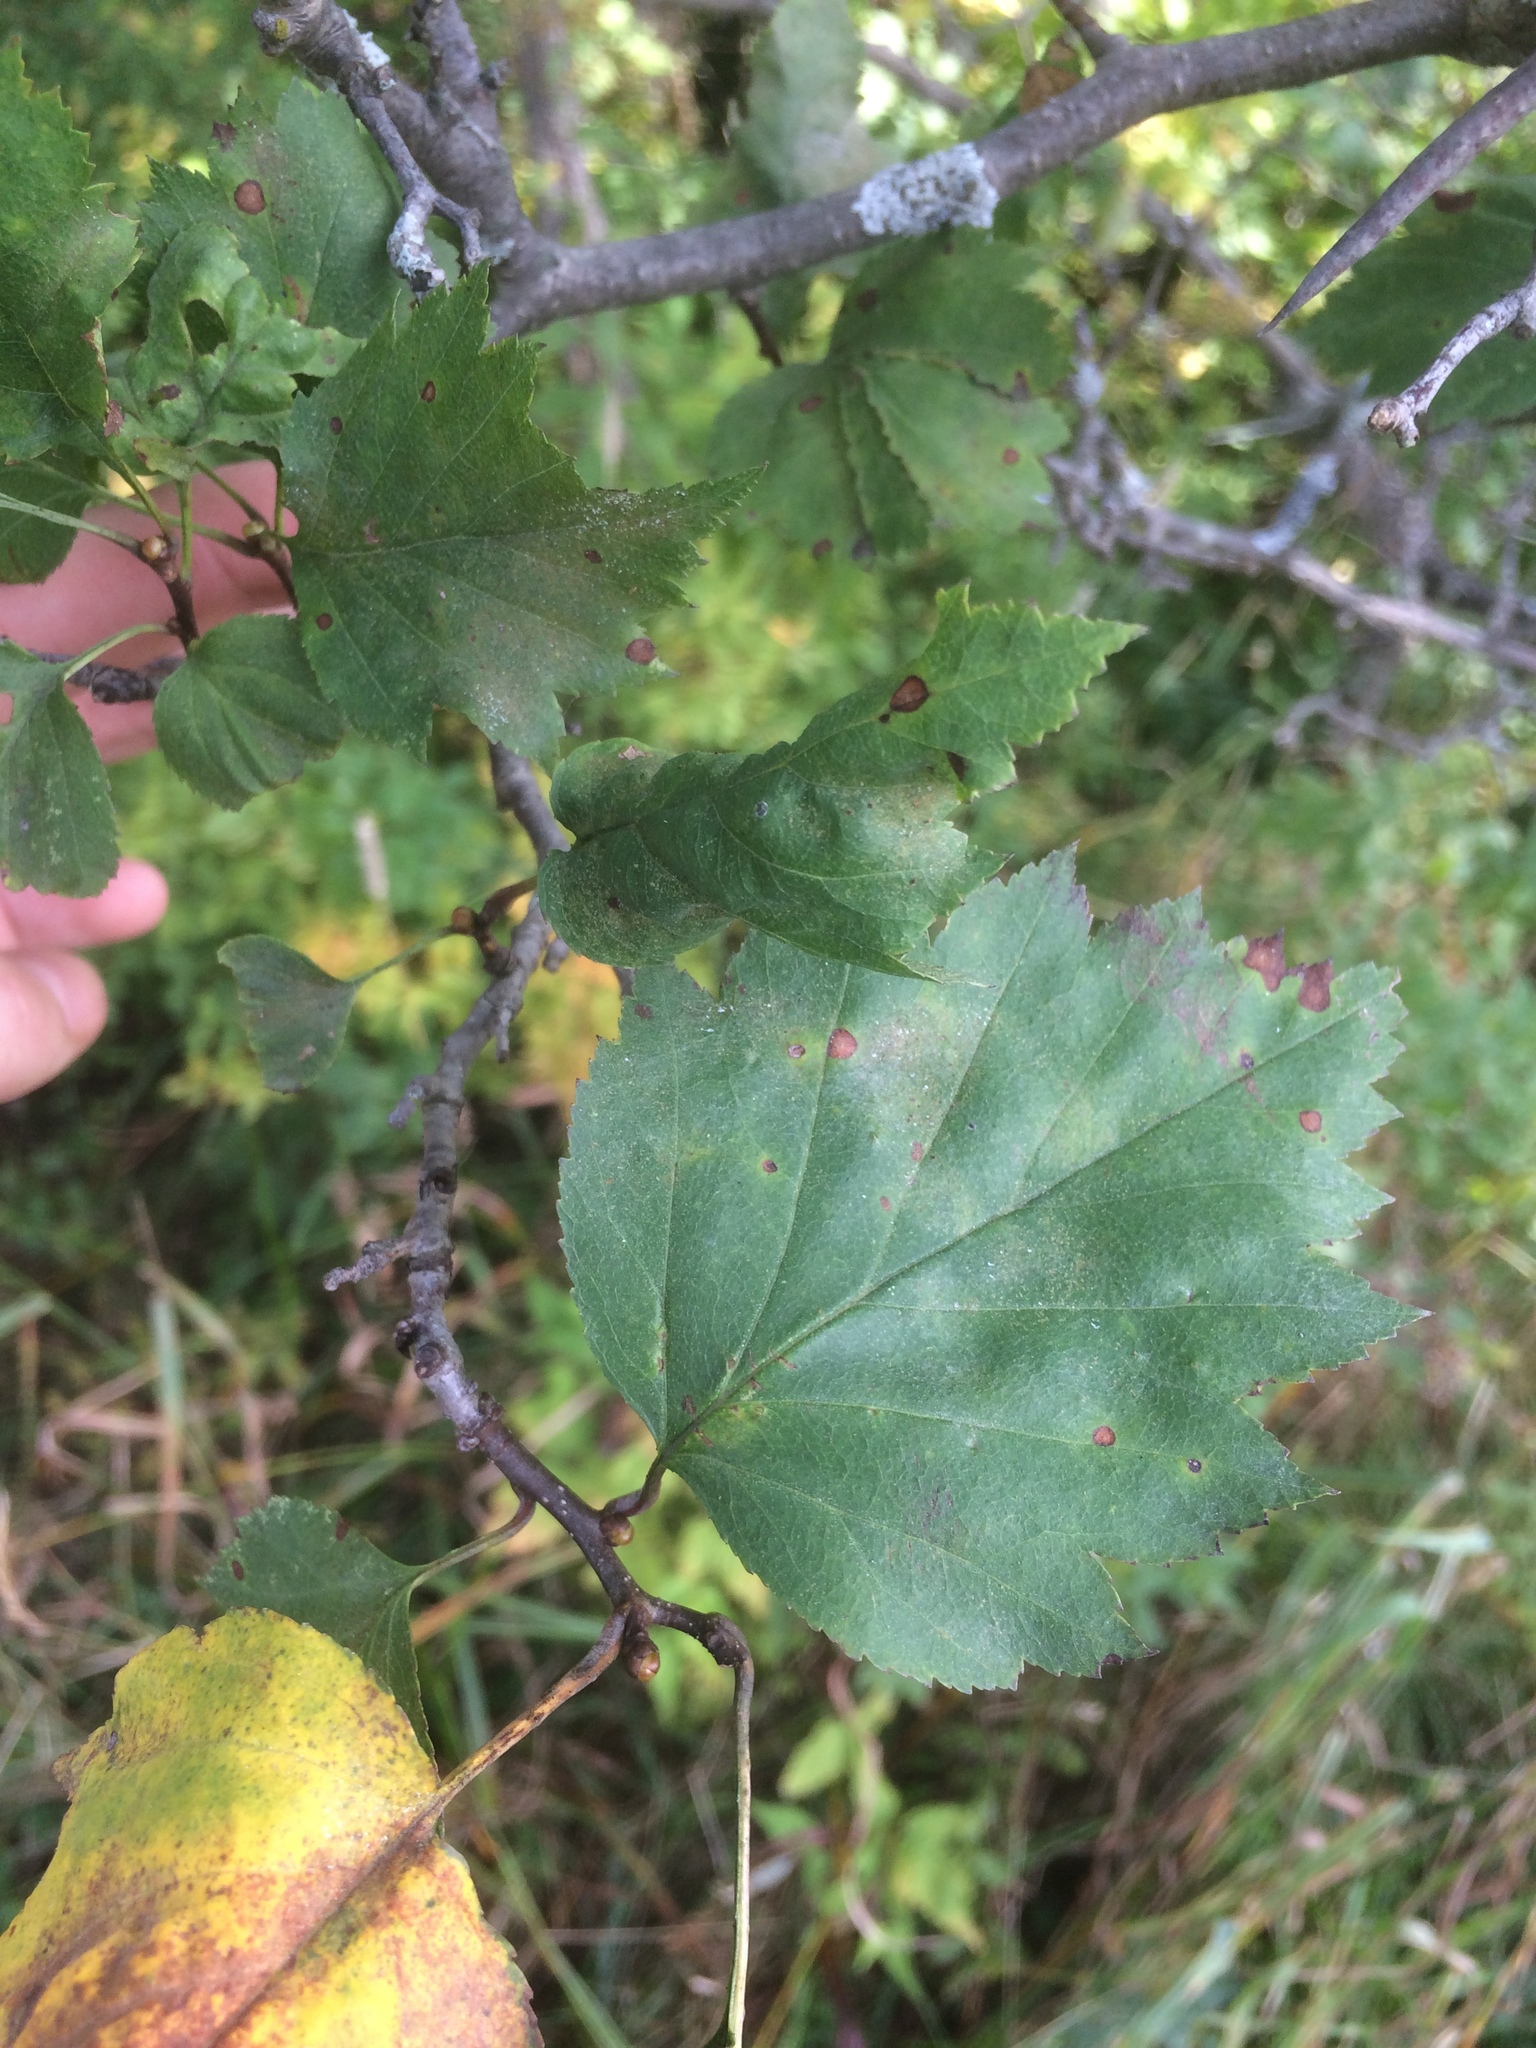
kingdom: Plantae
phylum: Tracheophyta
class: Magnoliopsida
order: Rosales
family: Rosaceae
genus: Crataegus
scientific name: Crataegus schuettei
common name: Schuette's hawthorn
